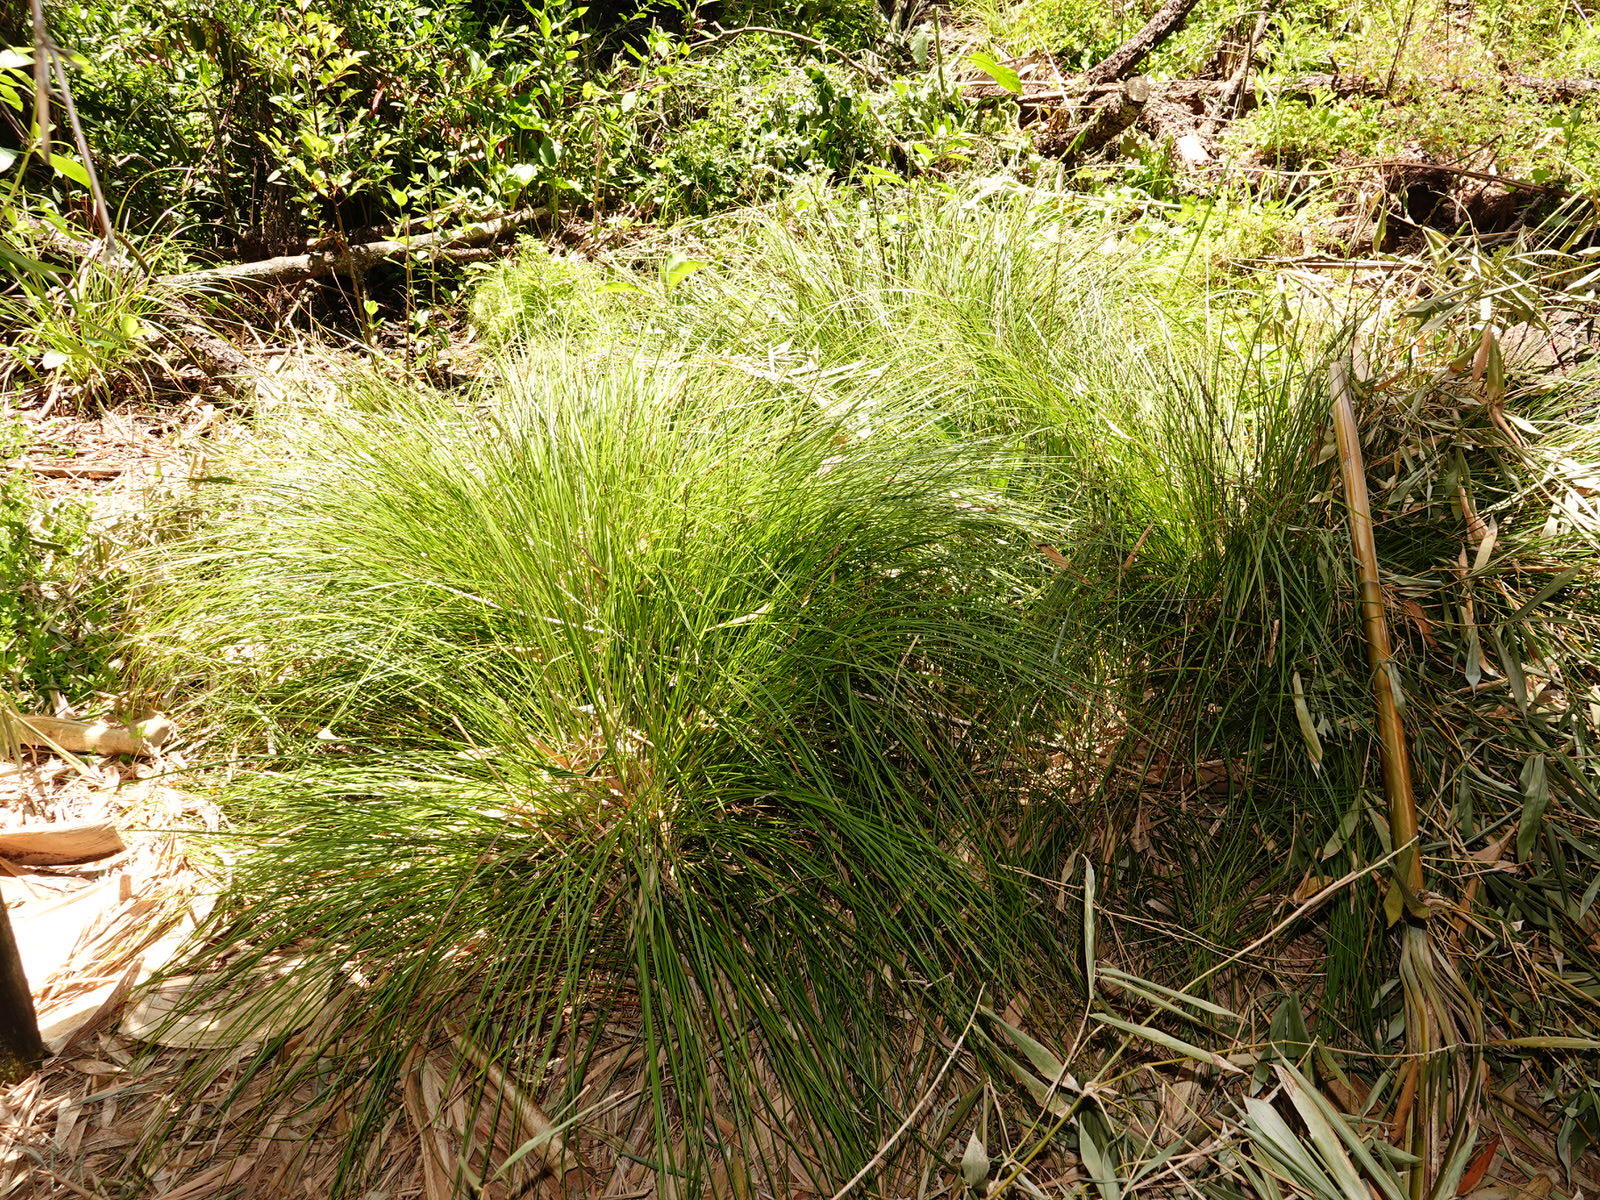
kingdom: Plantae
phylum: Tracheophyta
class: Liliopsida
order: Poales
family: Cyperaceae
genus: Carex
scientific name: Carex virgata
